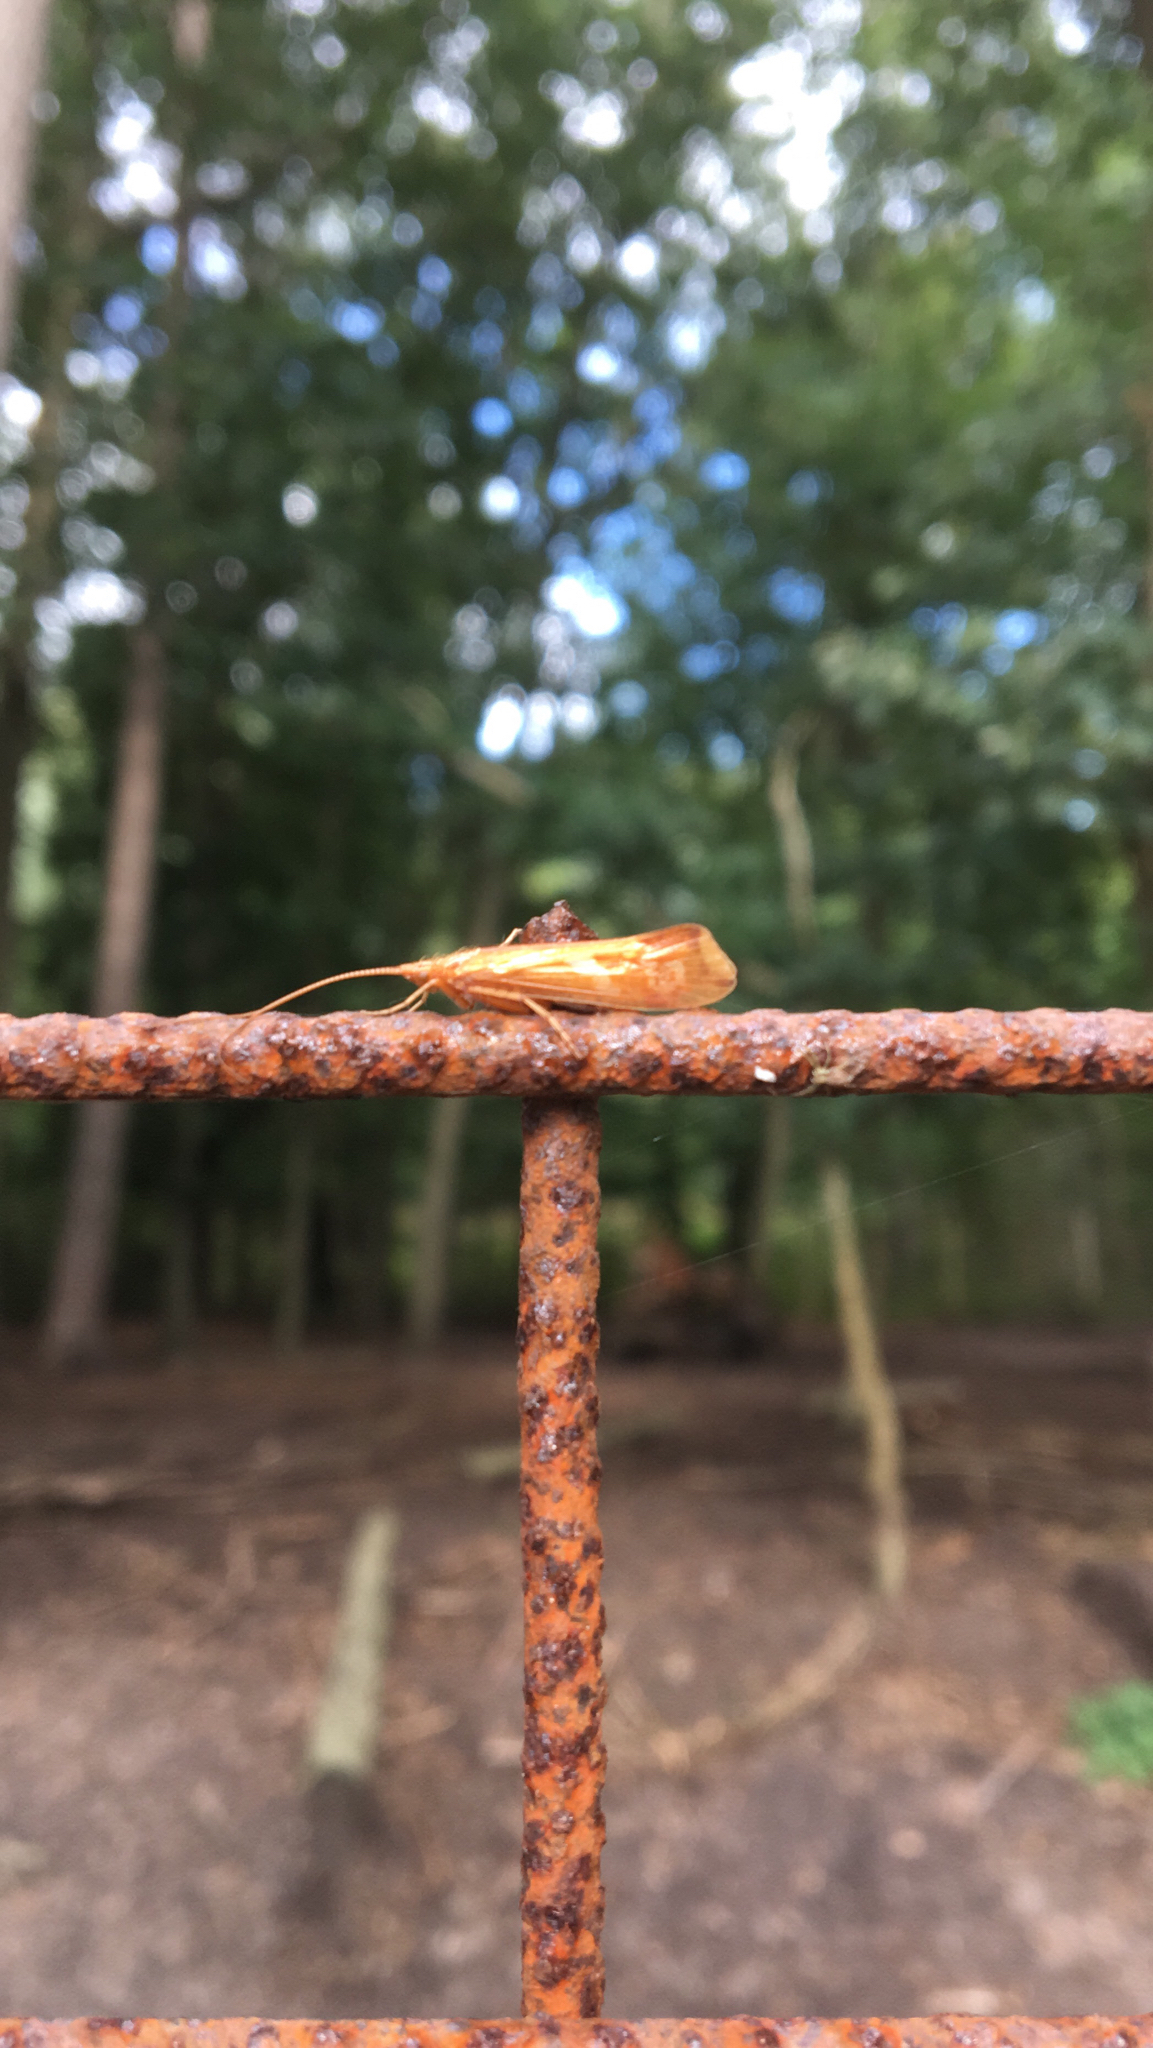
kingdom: Animalia
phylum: Arthropoda
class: Insecta
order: Trichoptera
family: Limnephilidae
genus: Limnephilus
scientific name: Limnephilus lunatus
